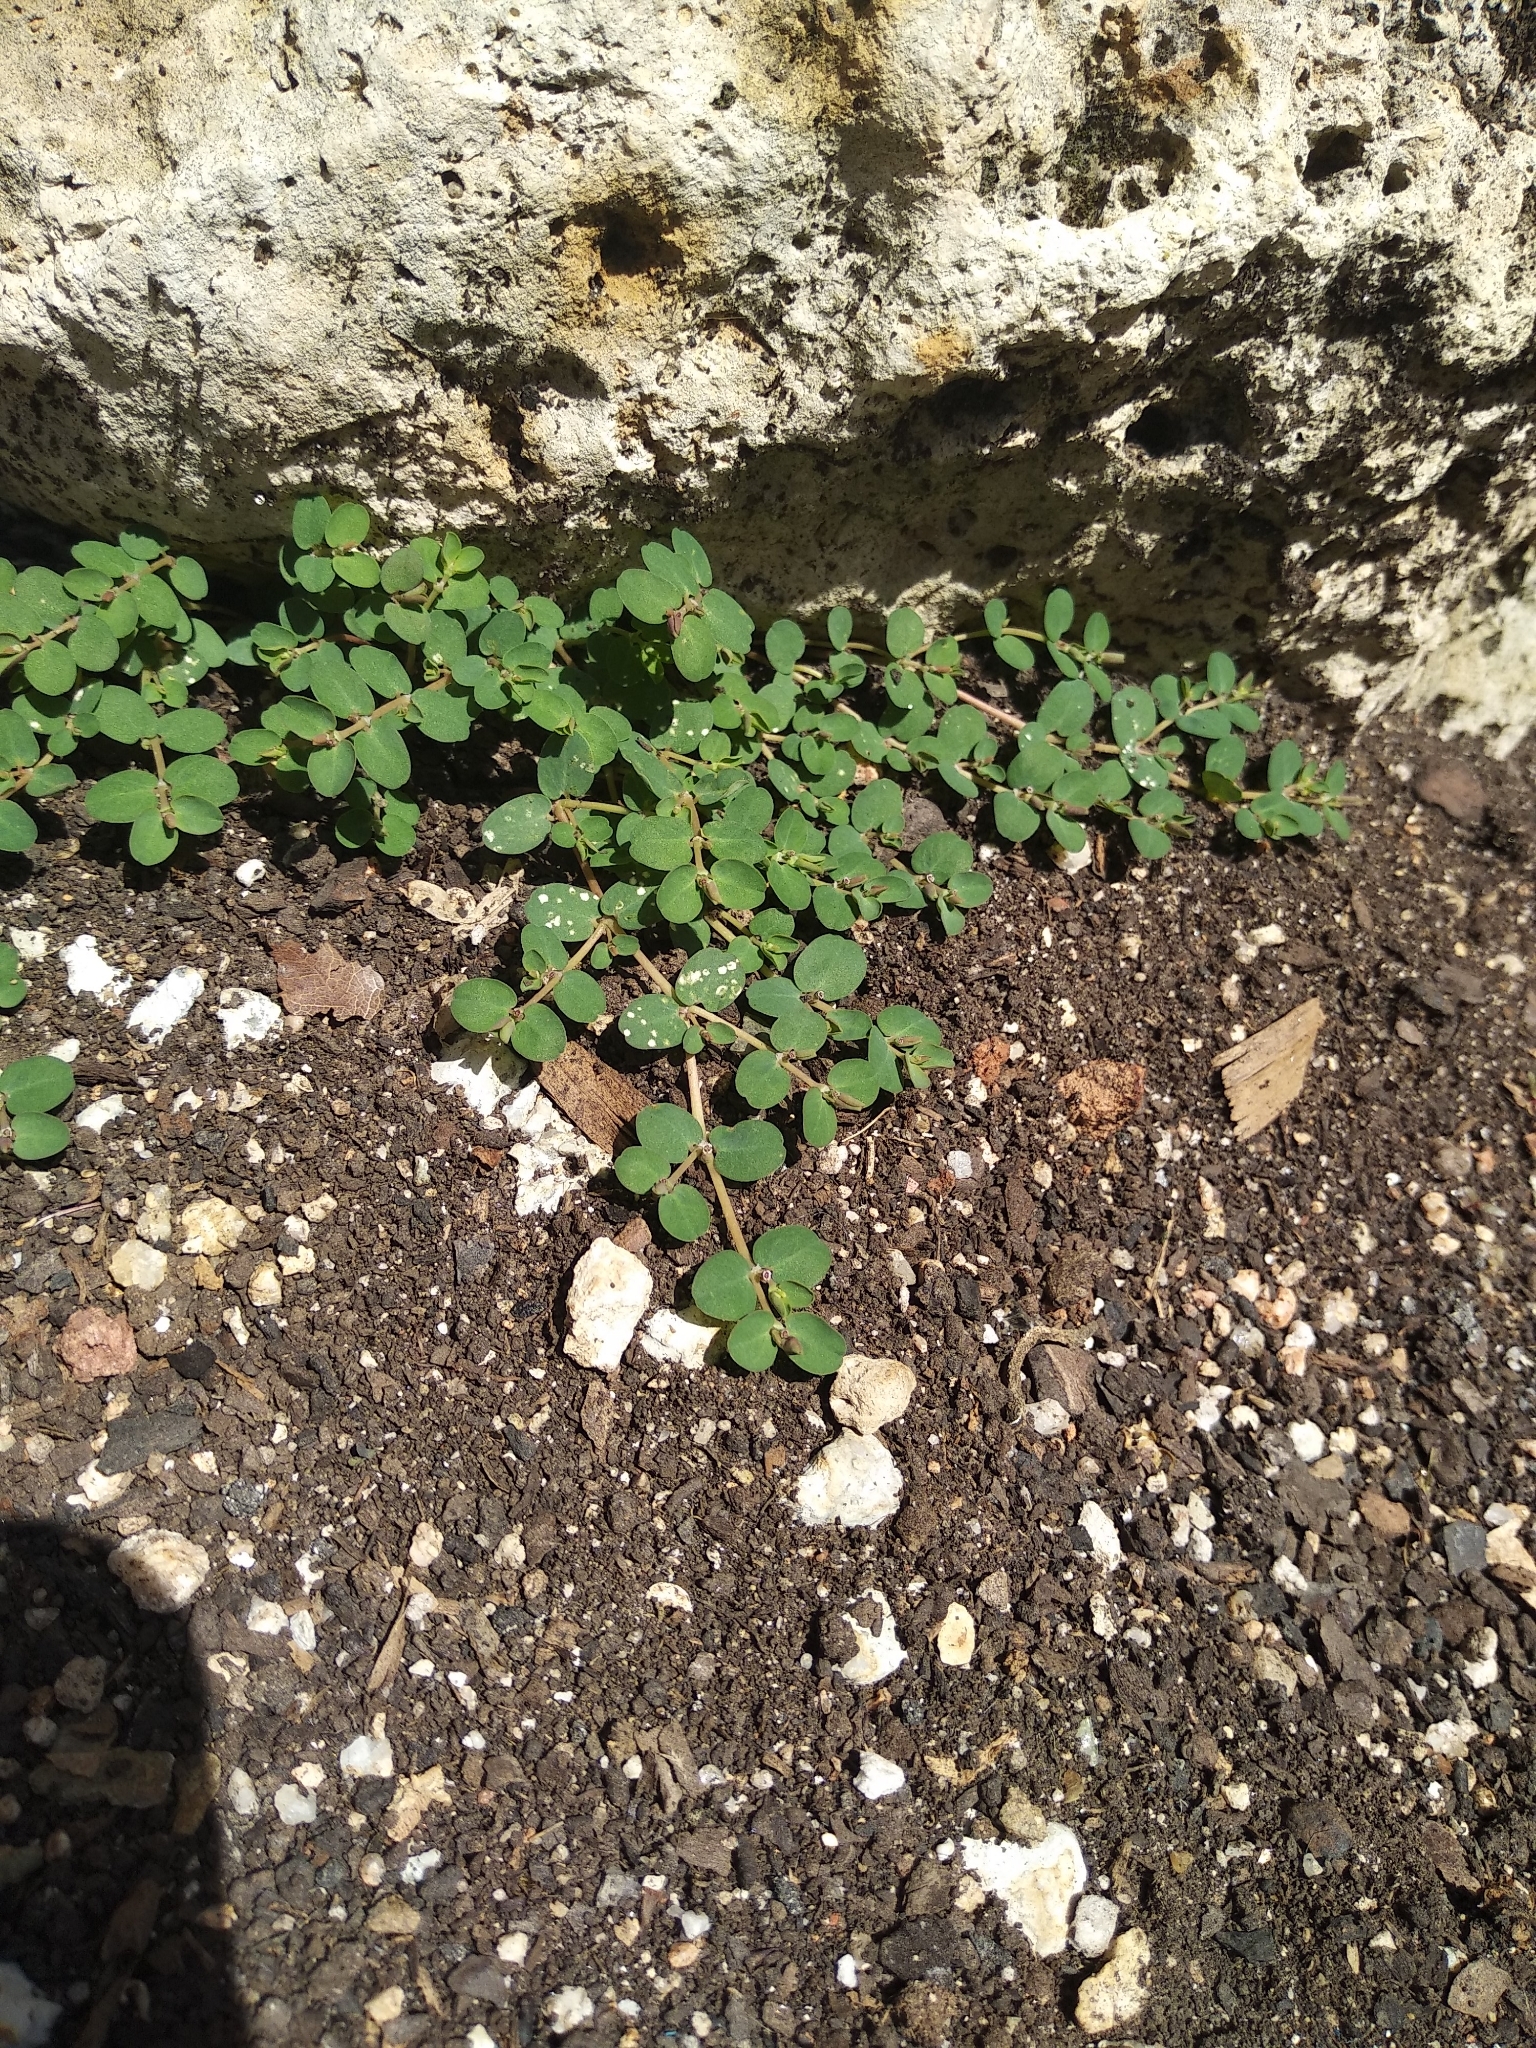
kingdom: Plantae
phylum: Tracheophyta
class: Magnoliopsida
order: Malpighiales
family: Euphorbiaceae
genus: Euphorbia
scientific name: Euphorbia serpens
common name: Matted sandmat
